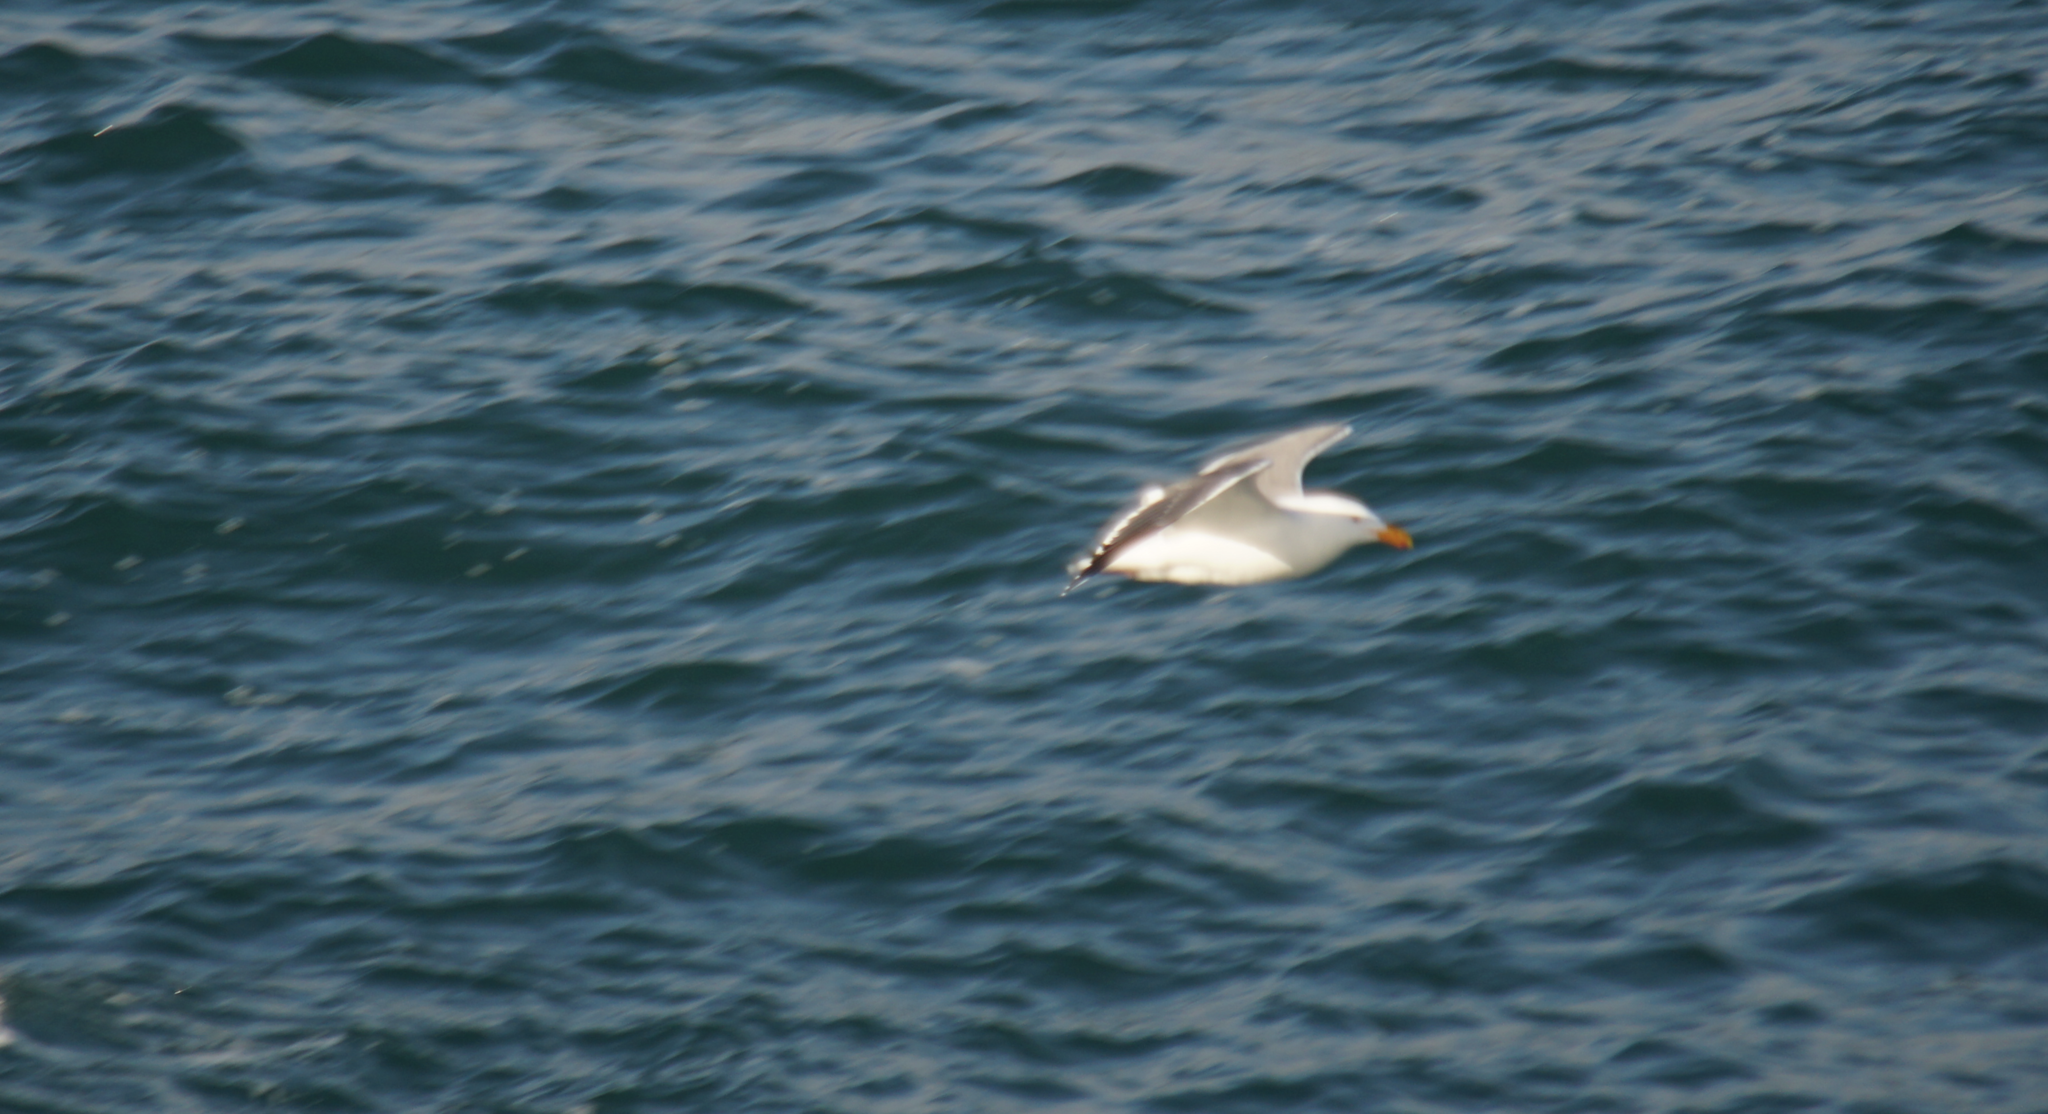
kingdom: Animalia
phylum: Chordata
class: Aves
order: Charadriiformes
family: Laridae
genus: Larus
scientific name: Larus occidentalis
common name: Western gull
